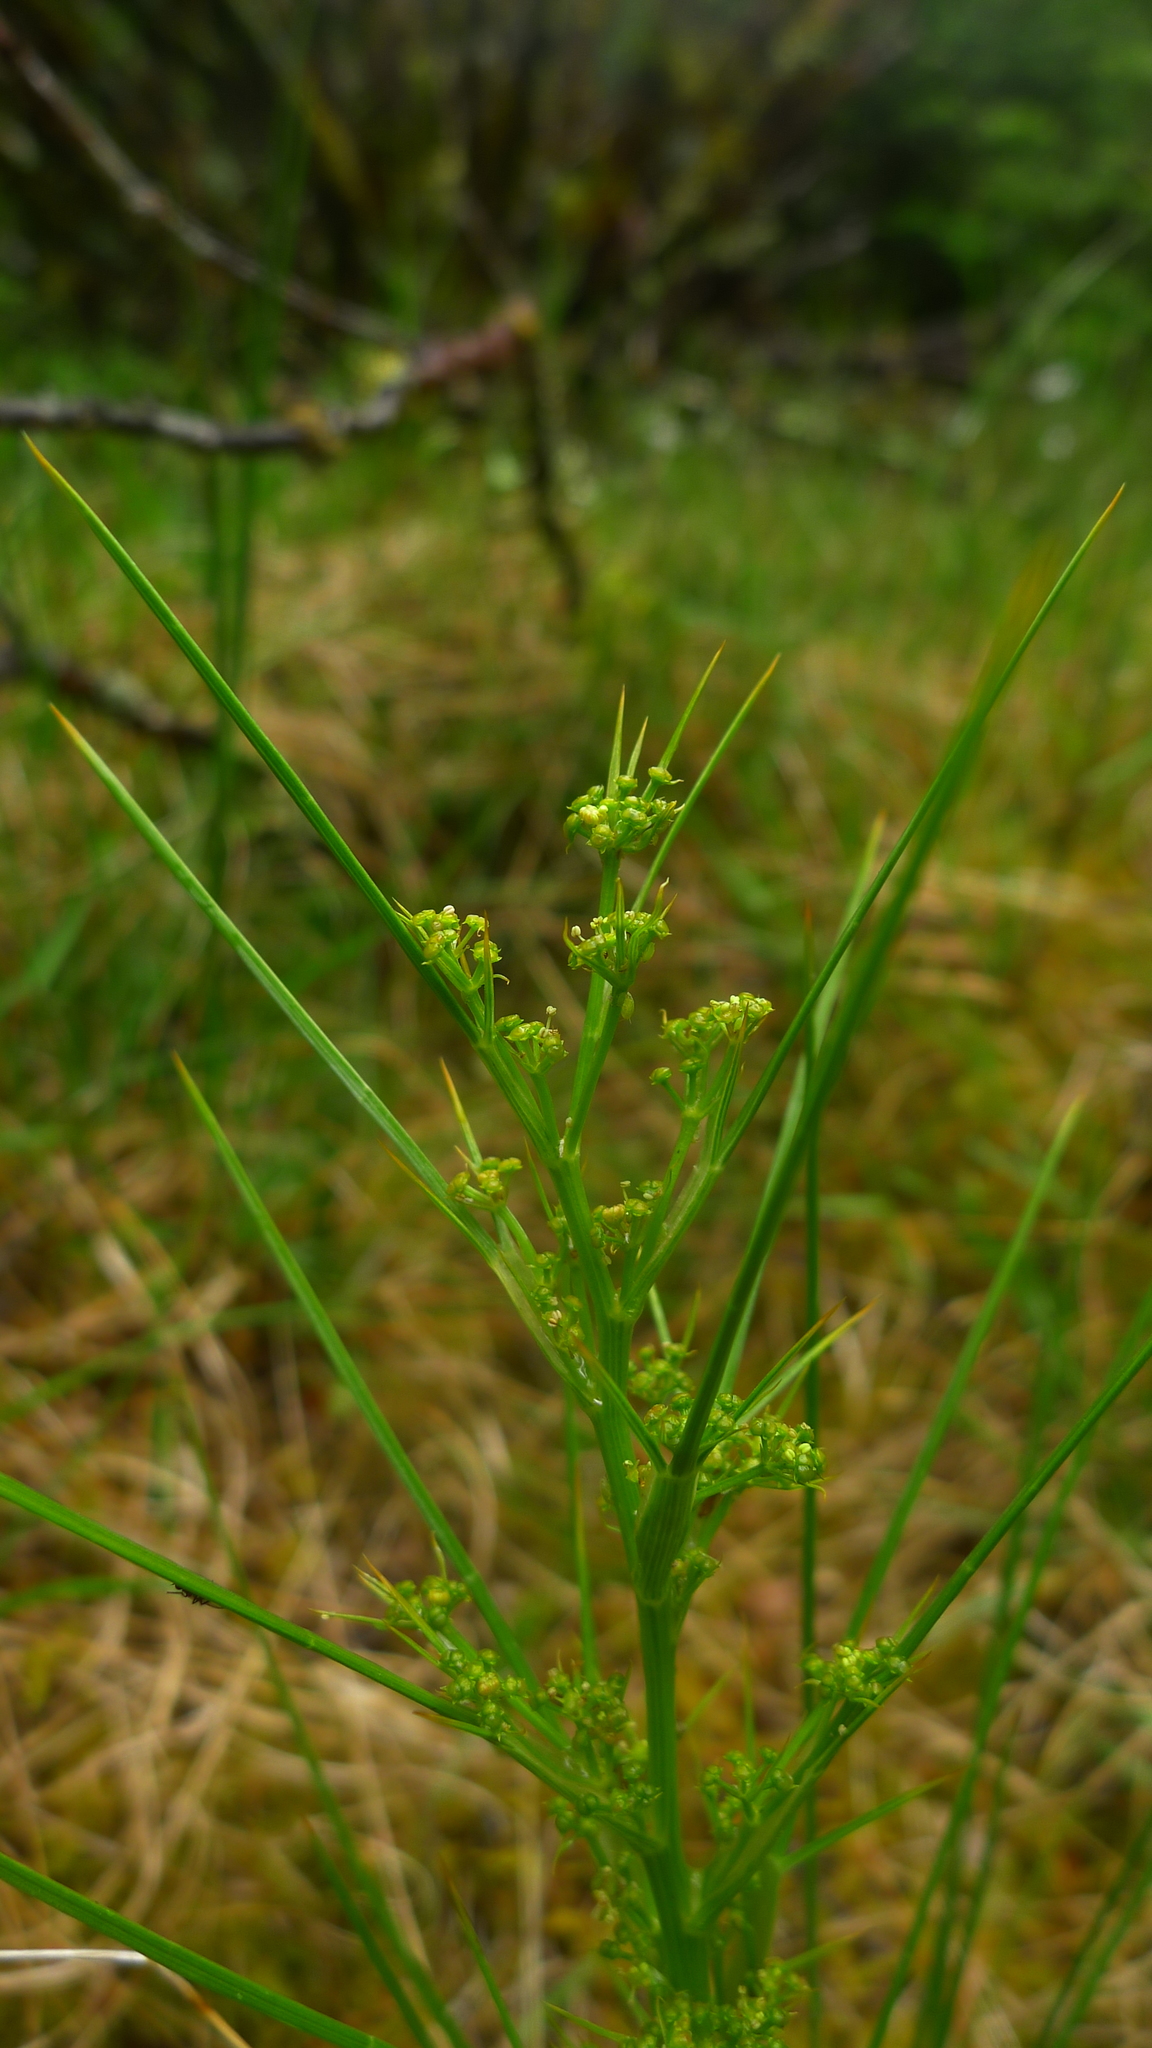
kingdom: Plantae
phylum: Tracheophyta
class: Magnoliopsida
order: Apiales
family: Apiaceae
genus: Aciphylla
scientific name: Aciphylla crenulata
